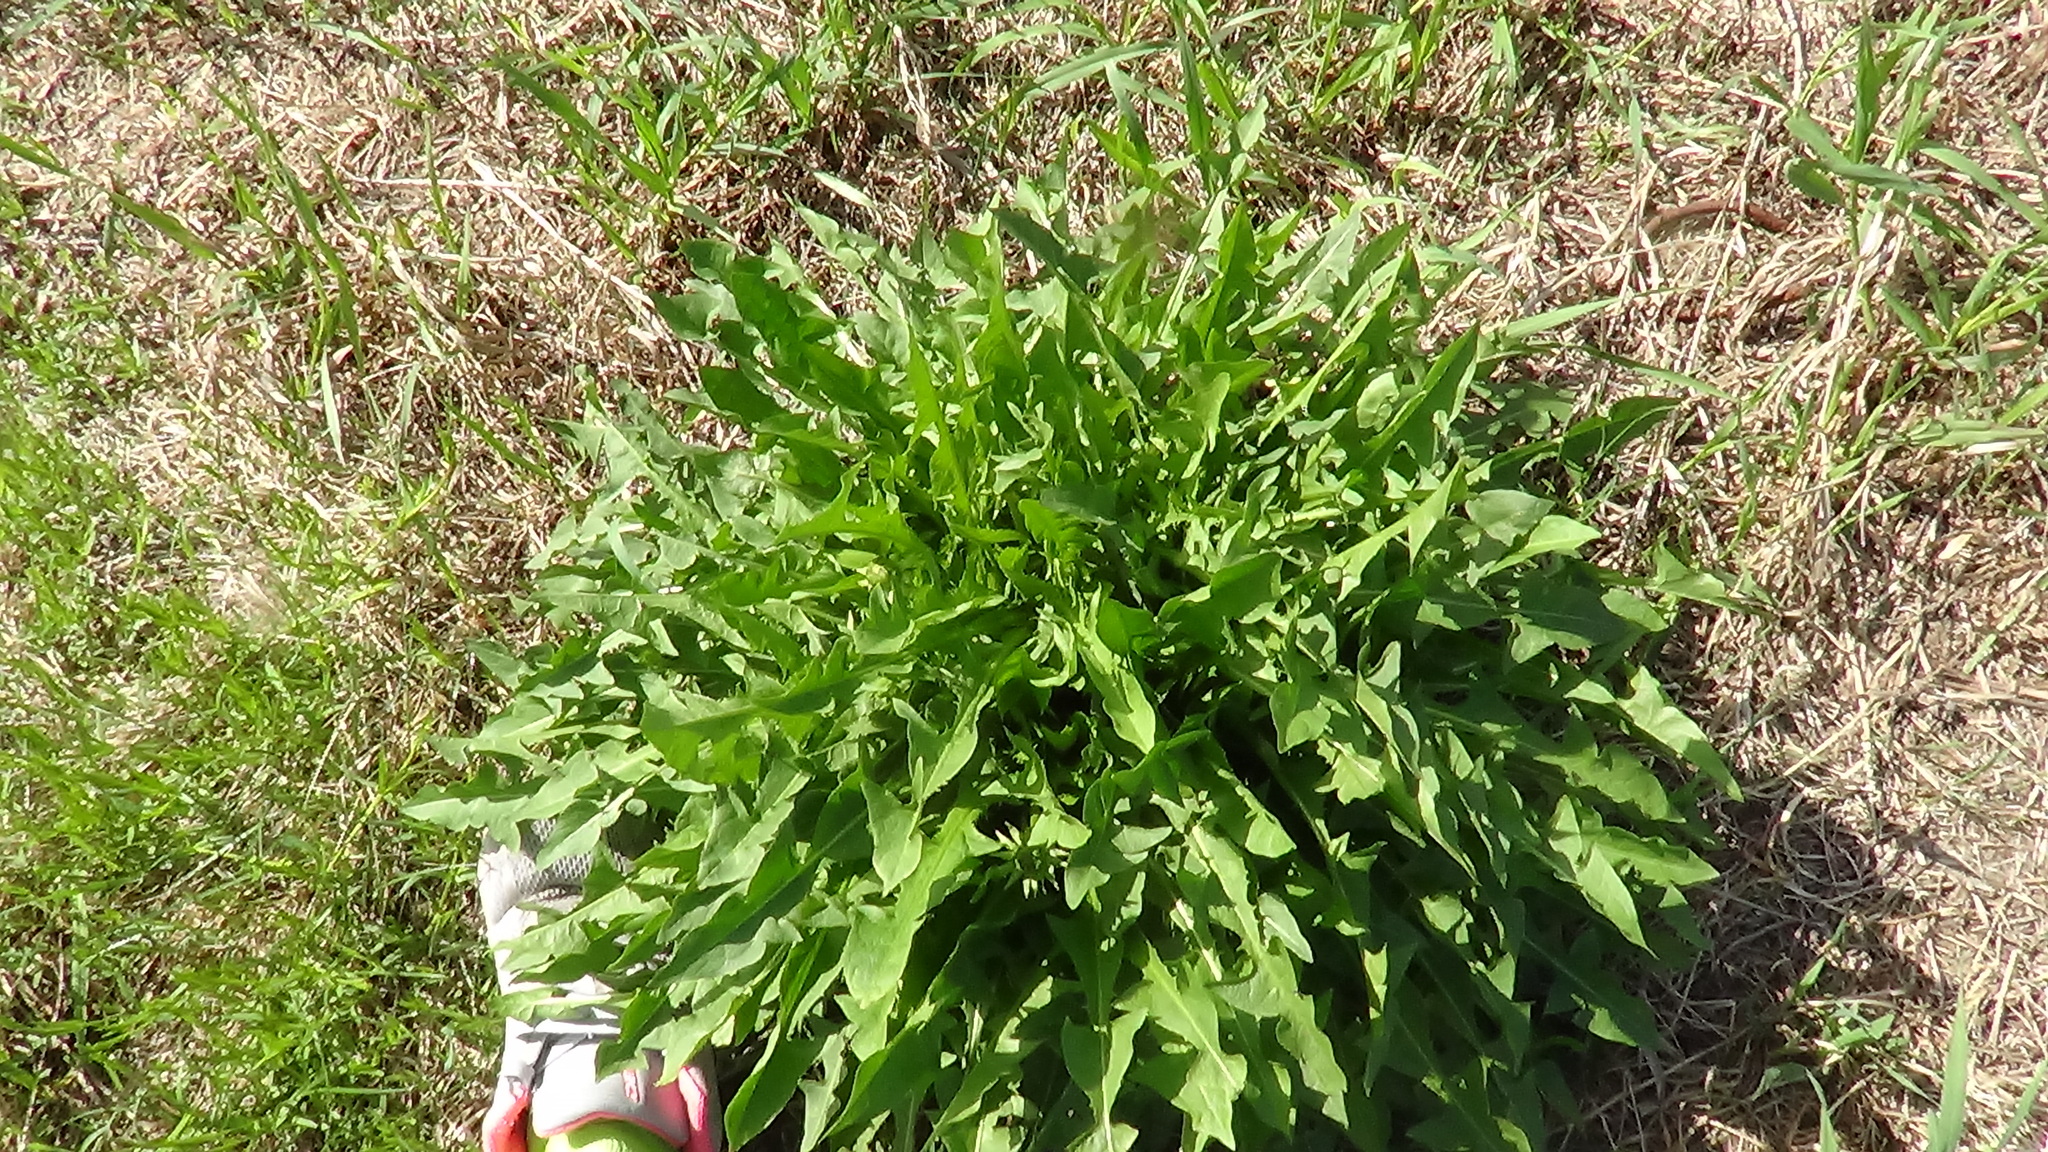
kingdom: Plantae
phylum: Tracheophyta
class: Magnoliopsida
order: Asterales
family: Asteraceae
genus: Taraxacum
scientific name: Taraxacum officinale
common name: Common dandelion
